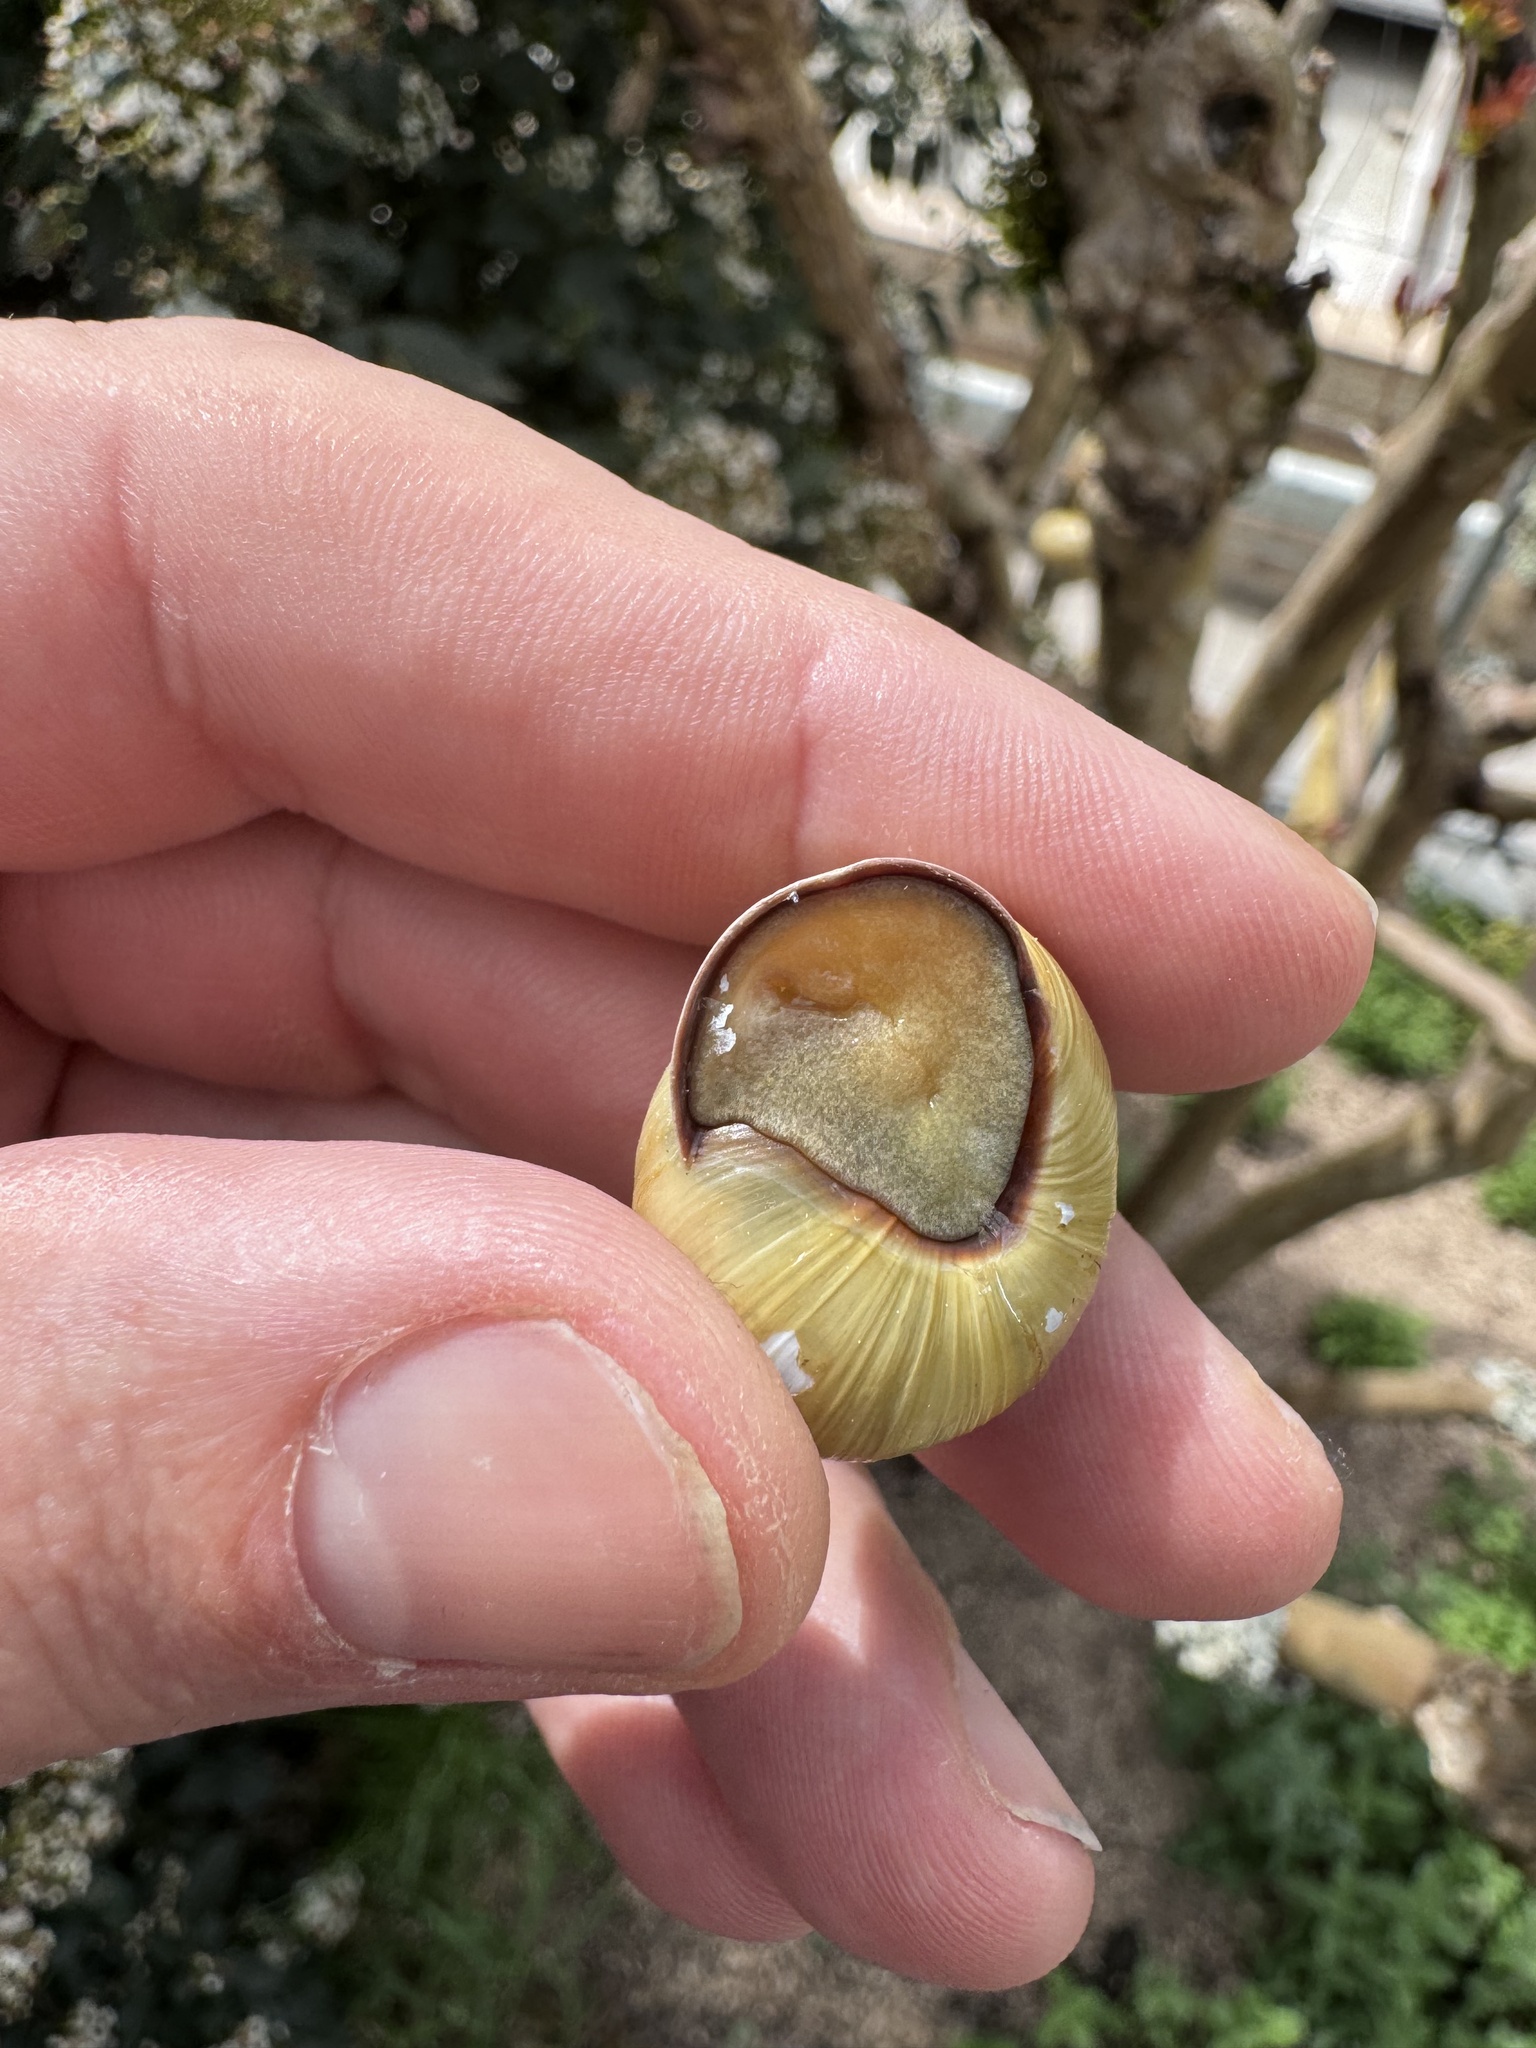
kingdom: Animalia
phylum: Mollusca
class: Gastropoda
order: Stylommatophora
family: Helicidae
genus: Cepaea
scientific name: Cepaea nemoralis
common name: Grovesnail
